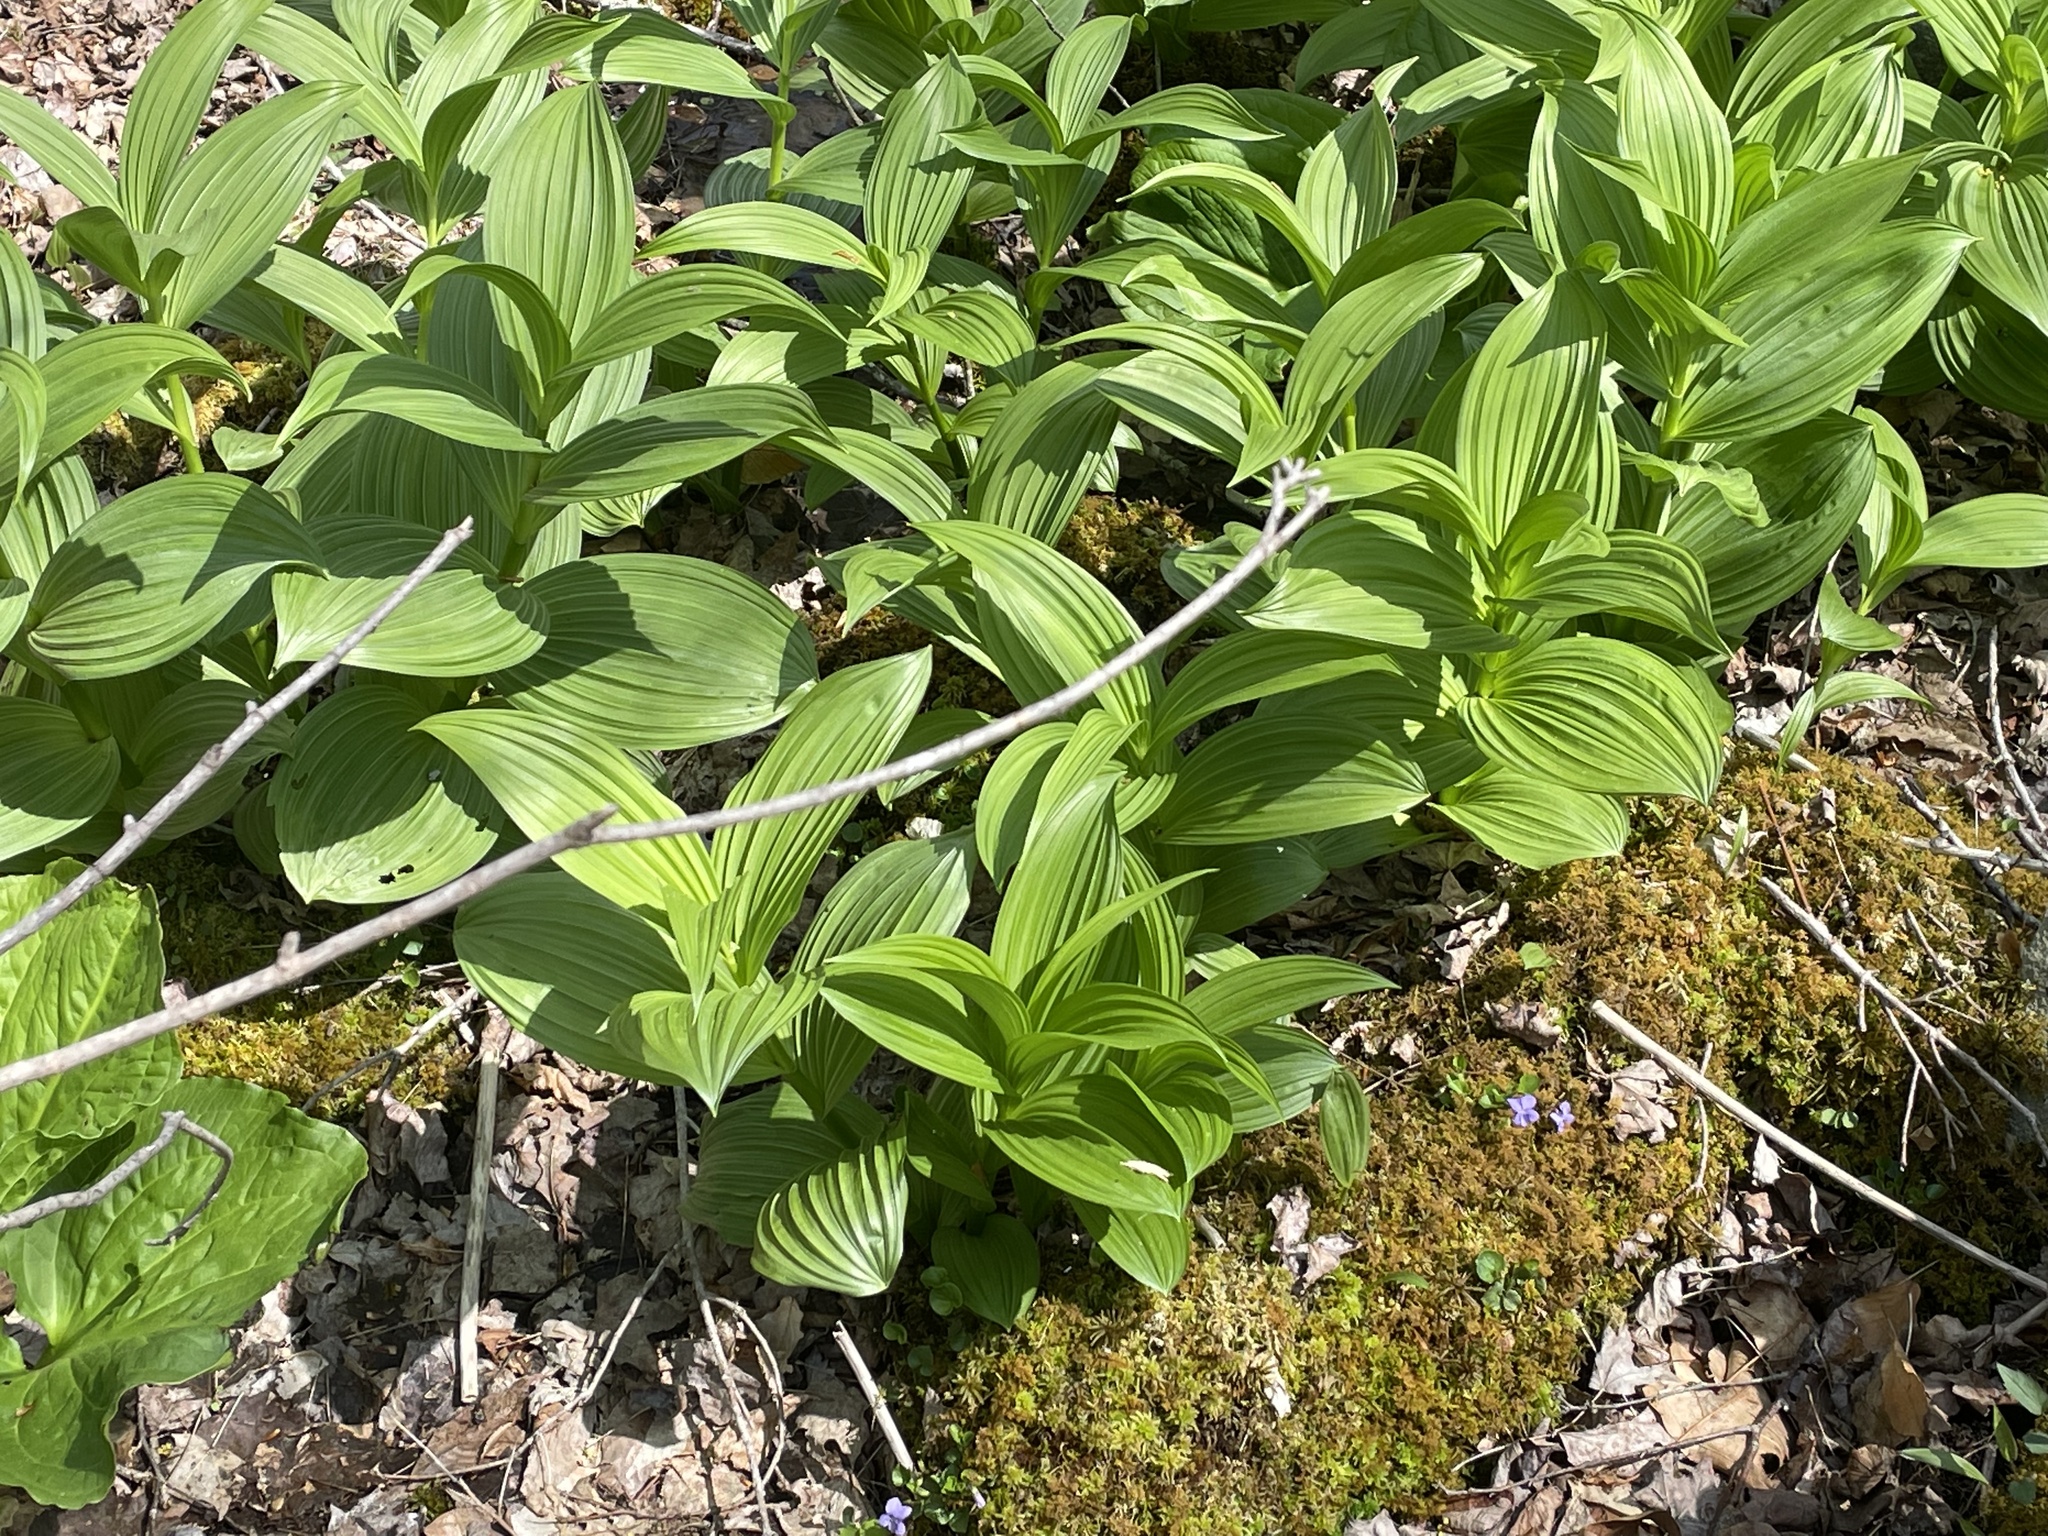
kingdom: Plantae
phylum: Tracheophyta
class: Liliopsida
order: Liliales
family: Melanthiaceae
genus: Veratrum
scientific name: Veratrum viride
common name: American false hellebore
